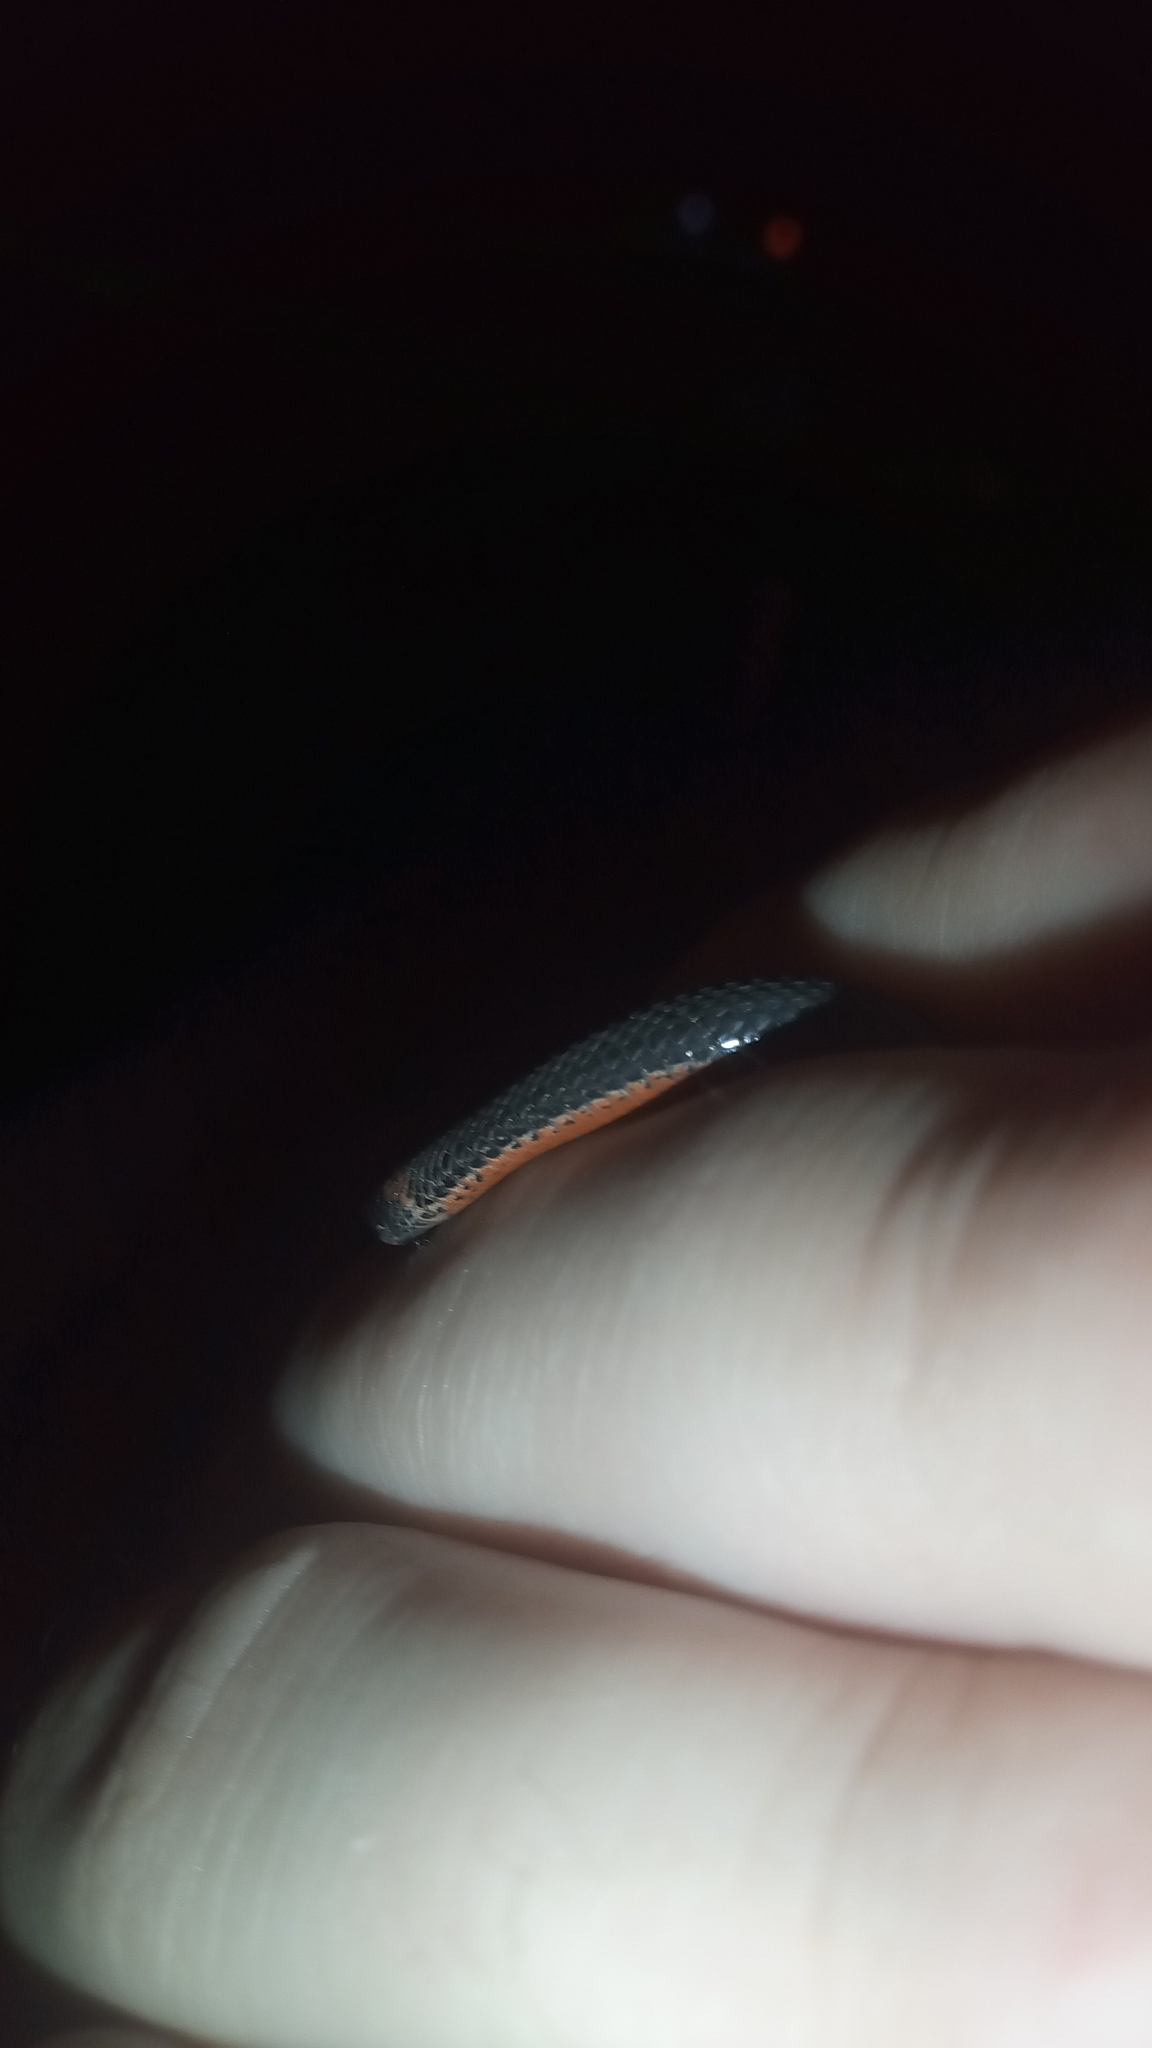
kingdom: Animalia
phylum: Chordata
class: Squamata
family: Colubridae
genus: Storeria
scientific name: Storeria occipitomaculata
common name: Redbelly snake
